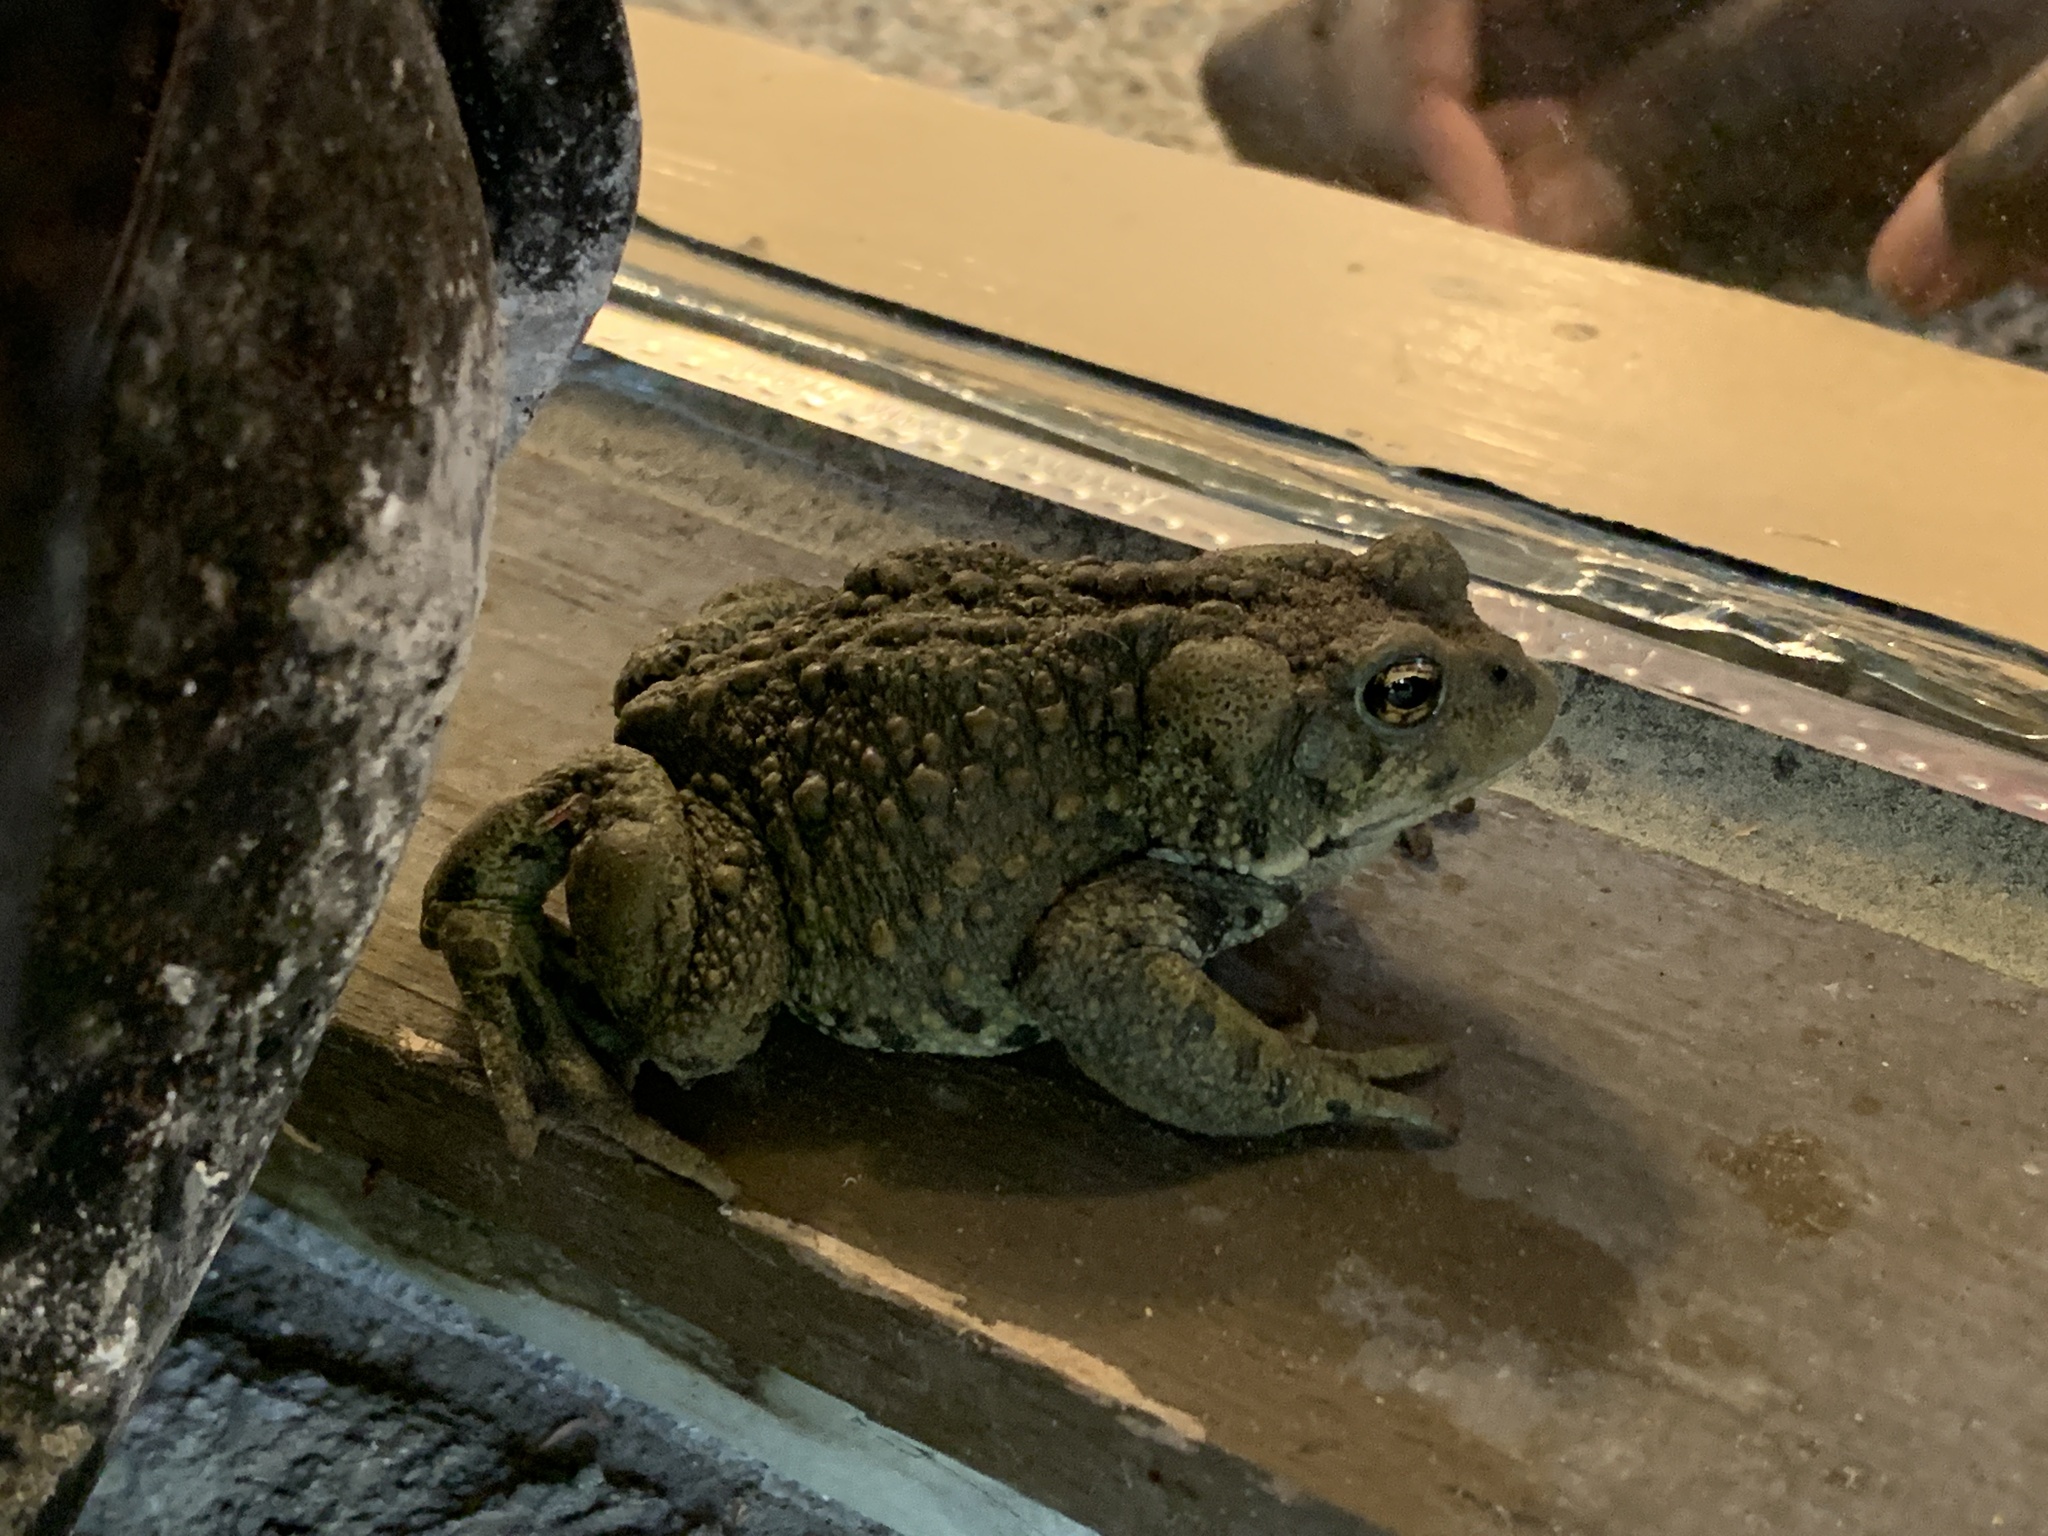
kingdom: Animalia
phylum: Chordata
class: Amphibia
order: Anura
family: Bufonidae
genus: Anaxyrus
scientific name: Anaxyrus boreas
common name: Western toad
